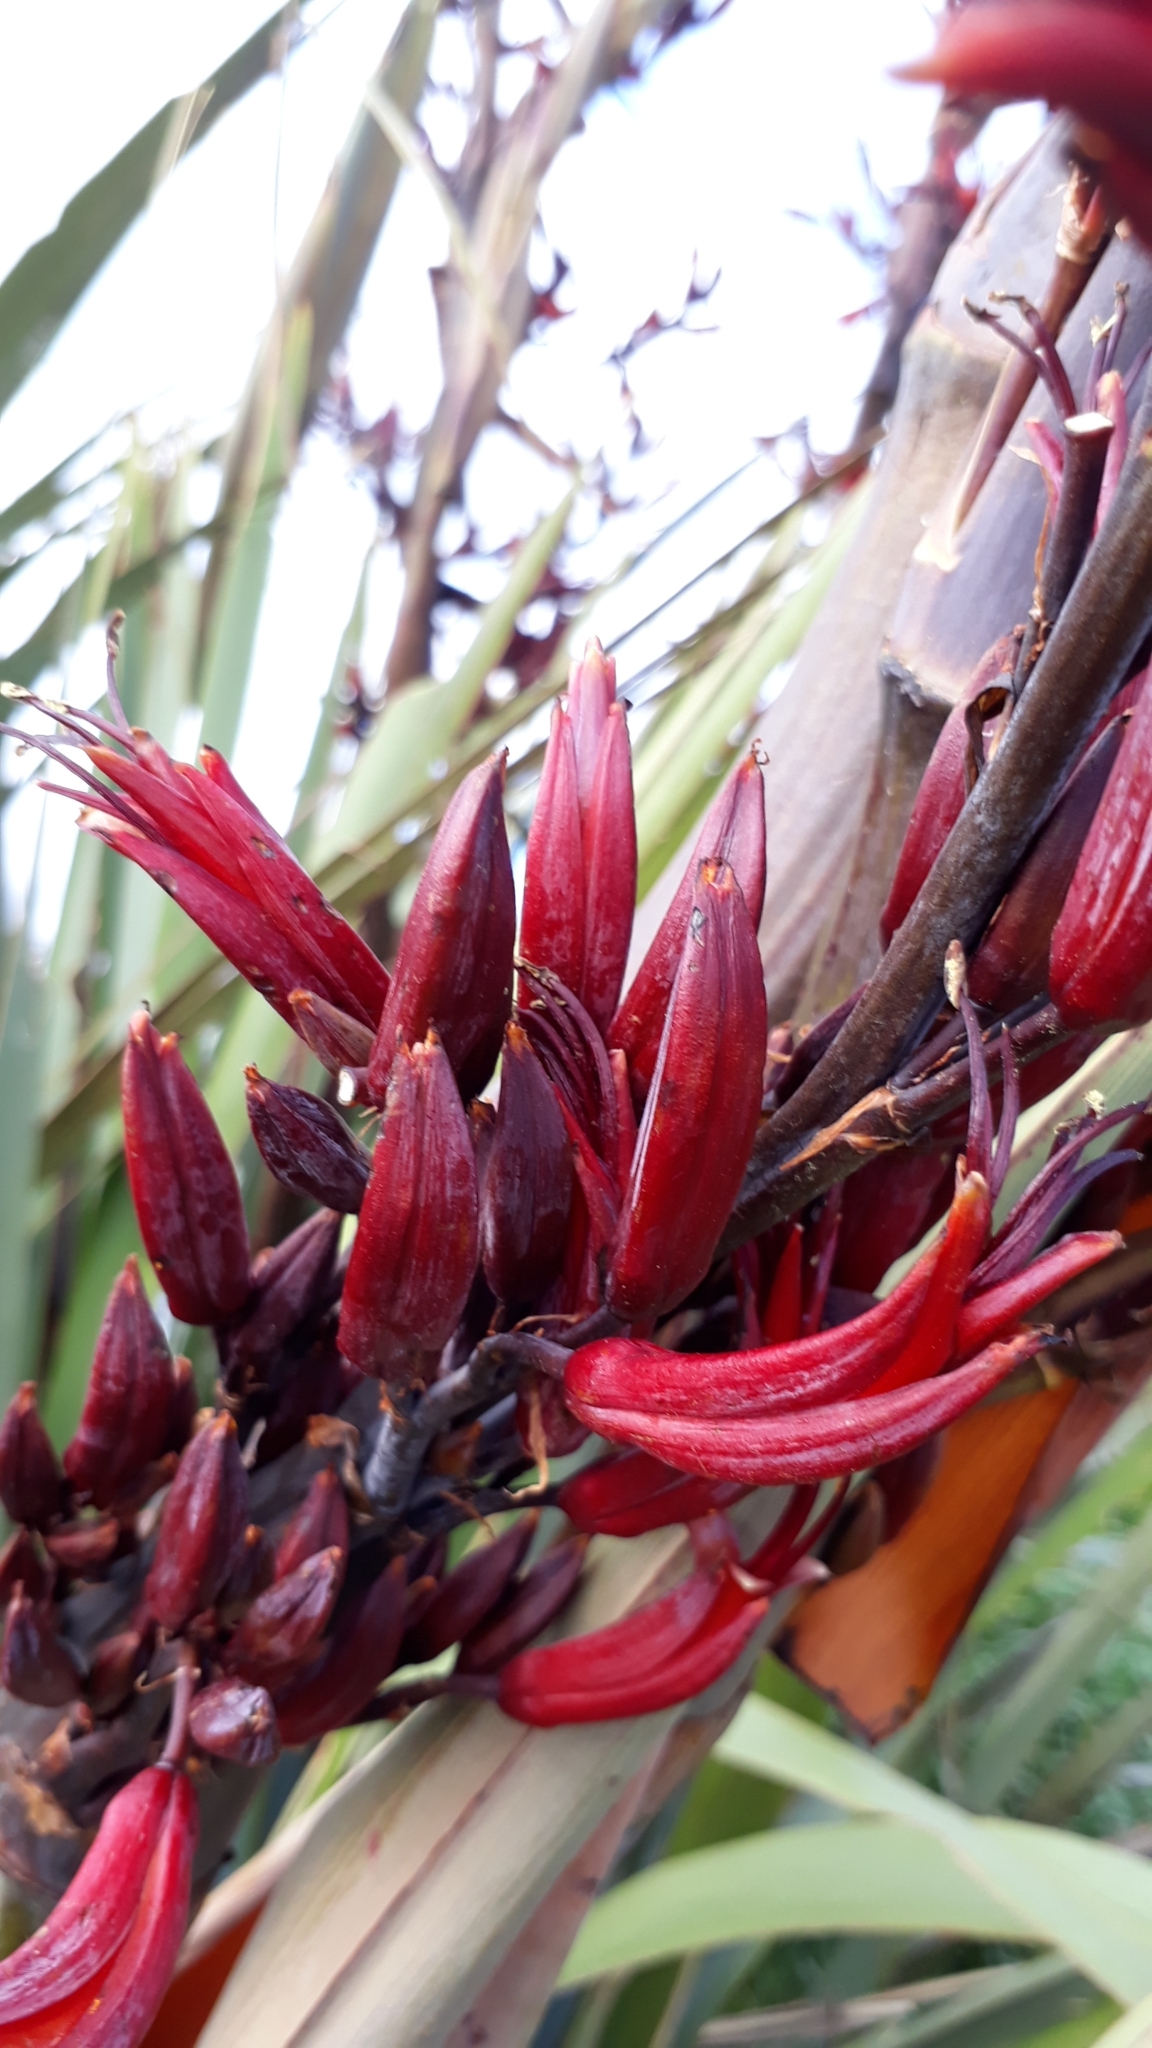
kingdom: Plantae
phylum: Tracheophyta
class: Liliopsida
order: Asparagales
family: Asphodelaceae
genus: Phormium
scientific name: Phormium tenax
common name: New zealand flax
